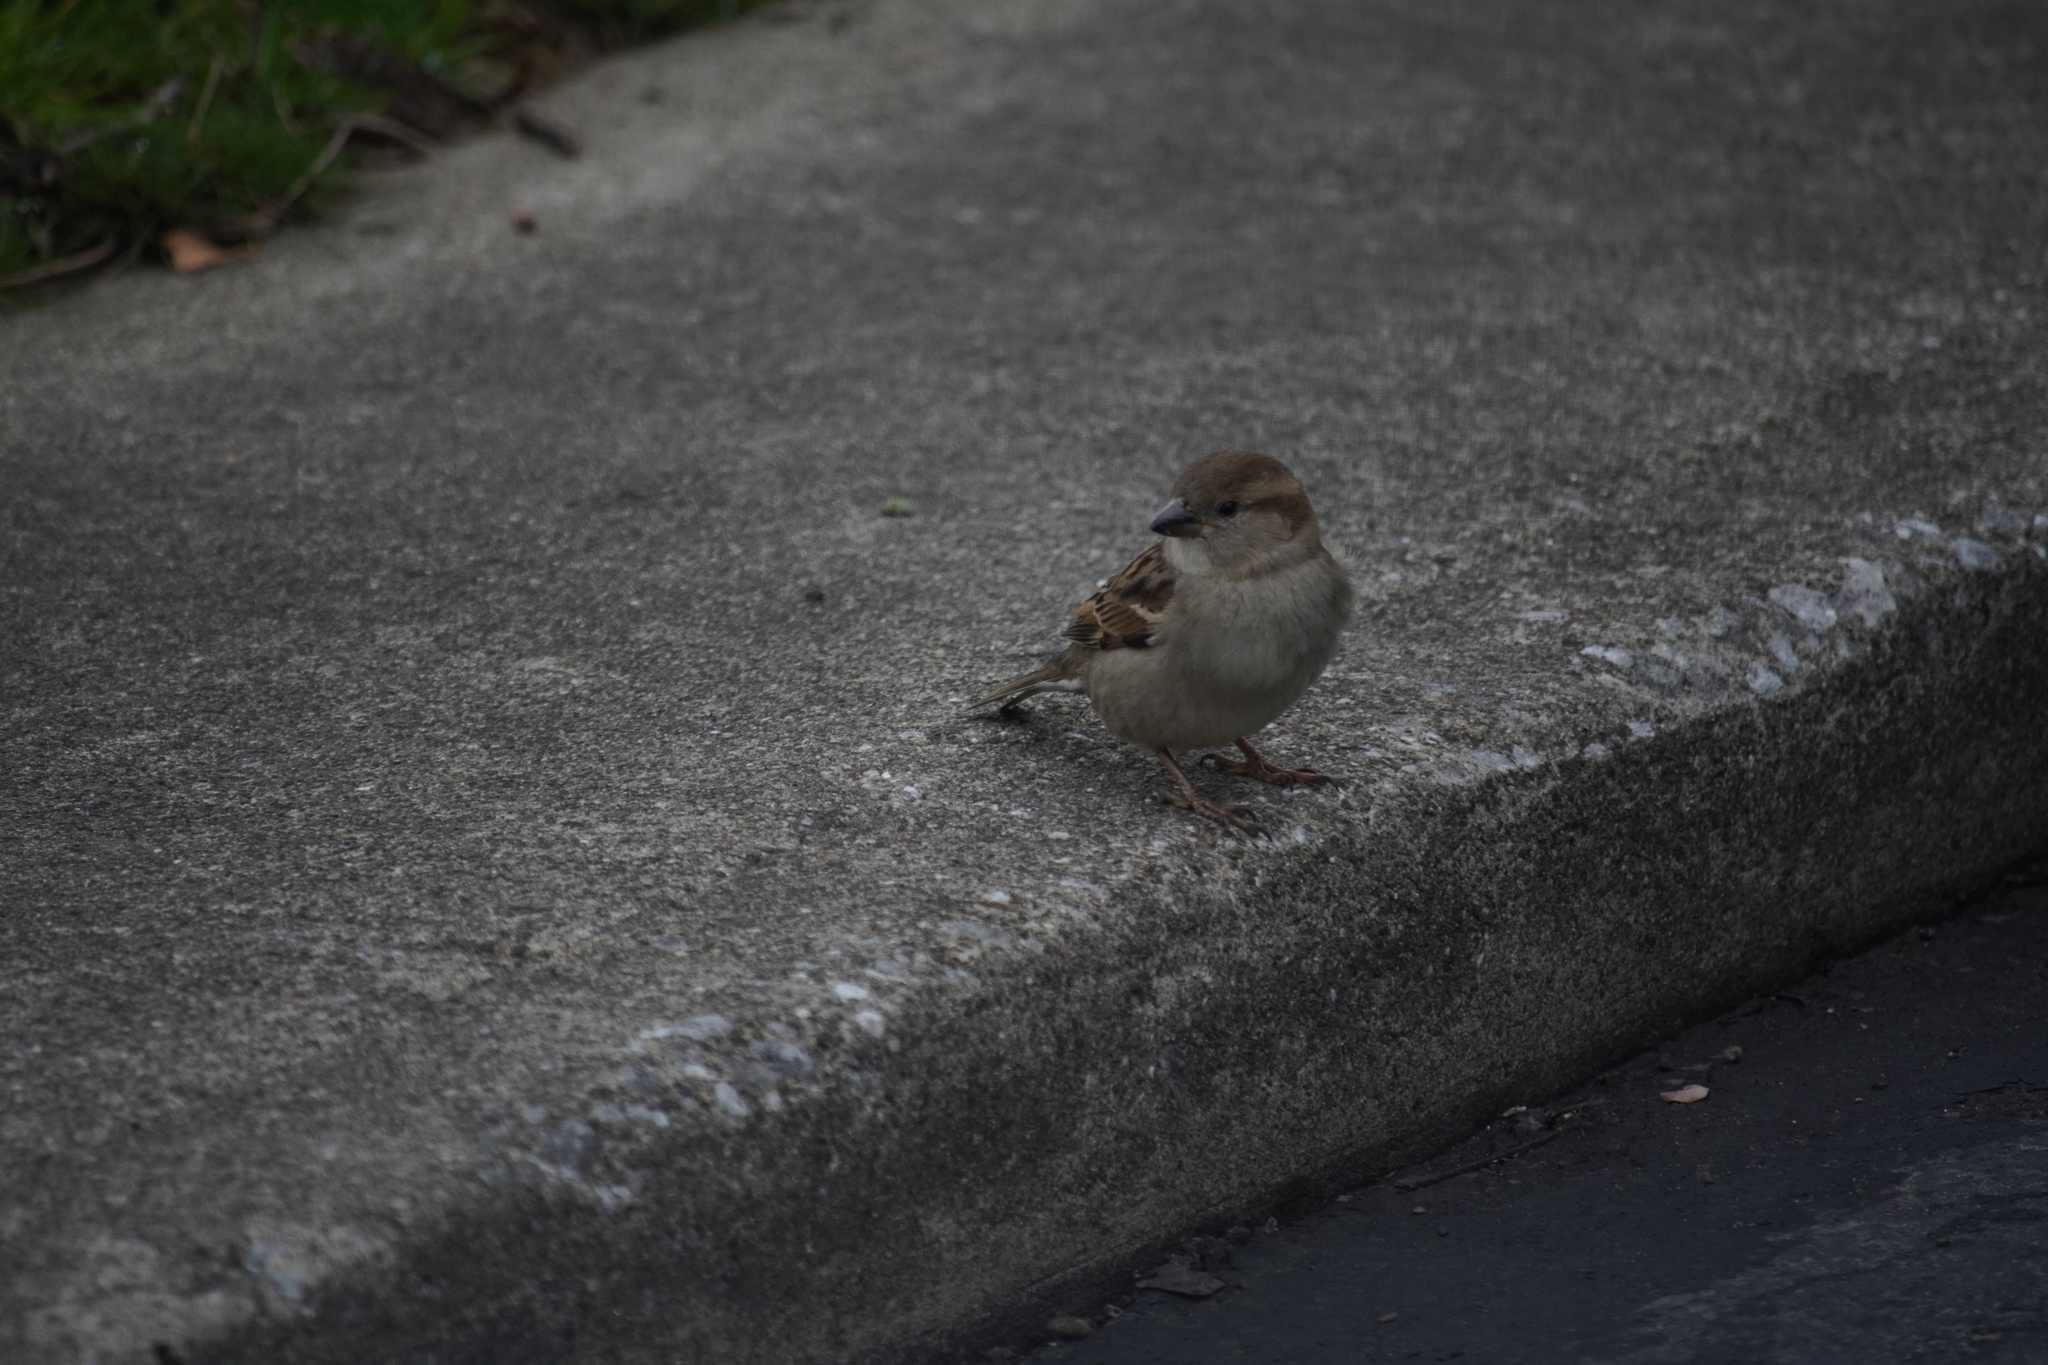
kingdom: Animalia
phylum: Chordata
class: Aves
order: Passeriformes
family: Passeridae
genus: Passer
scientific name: Passer domesticus
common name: House sparrow
